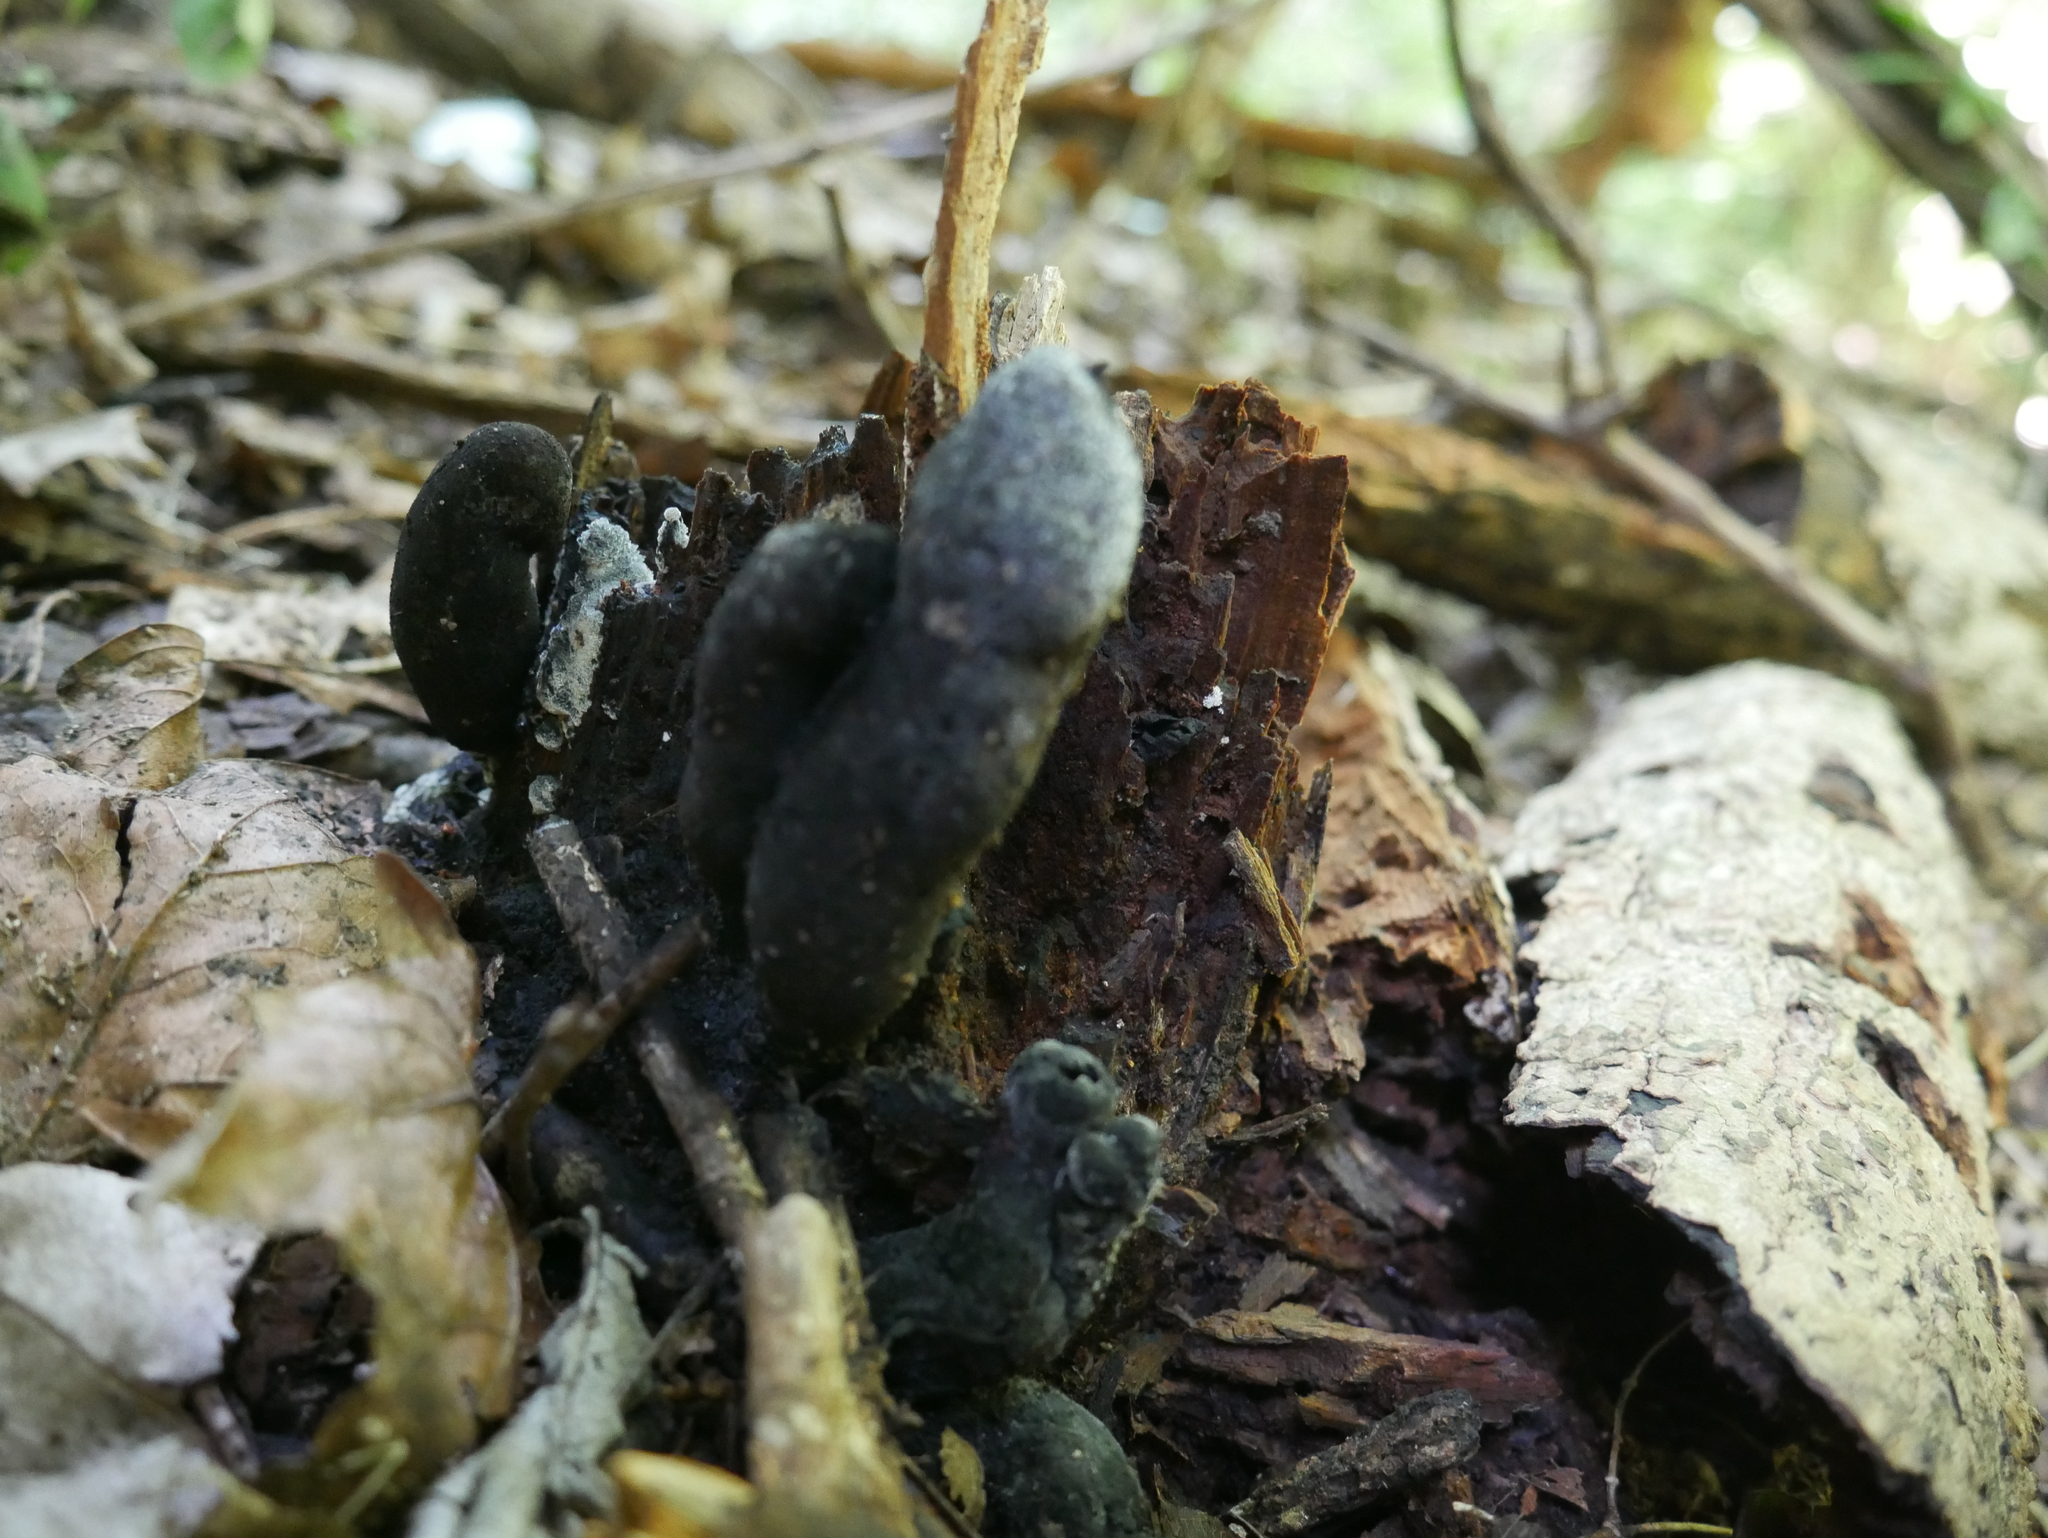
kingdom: Fungi
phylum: Ascomycota
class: Sordariomycetes
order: Xylariales
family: Xylariaceae
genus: Xylaria
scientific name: Xylaria polymorpha
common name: Dead man's fingers
